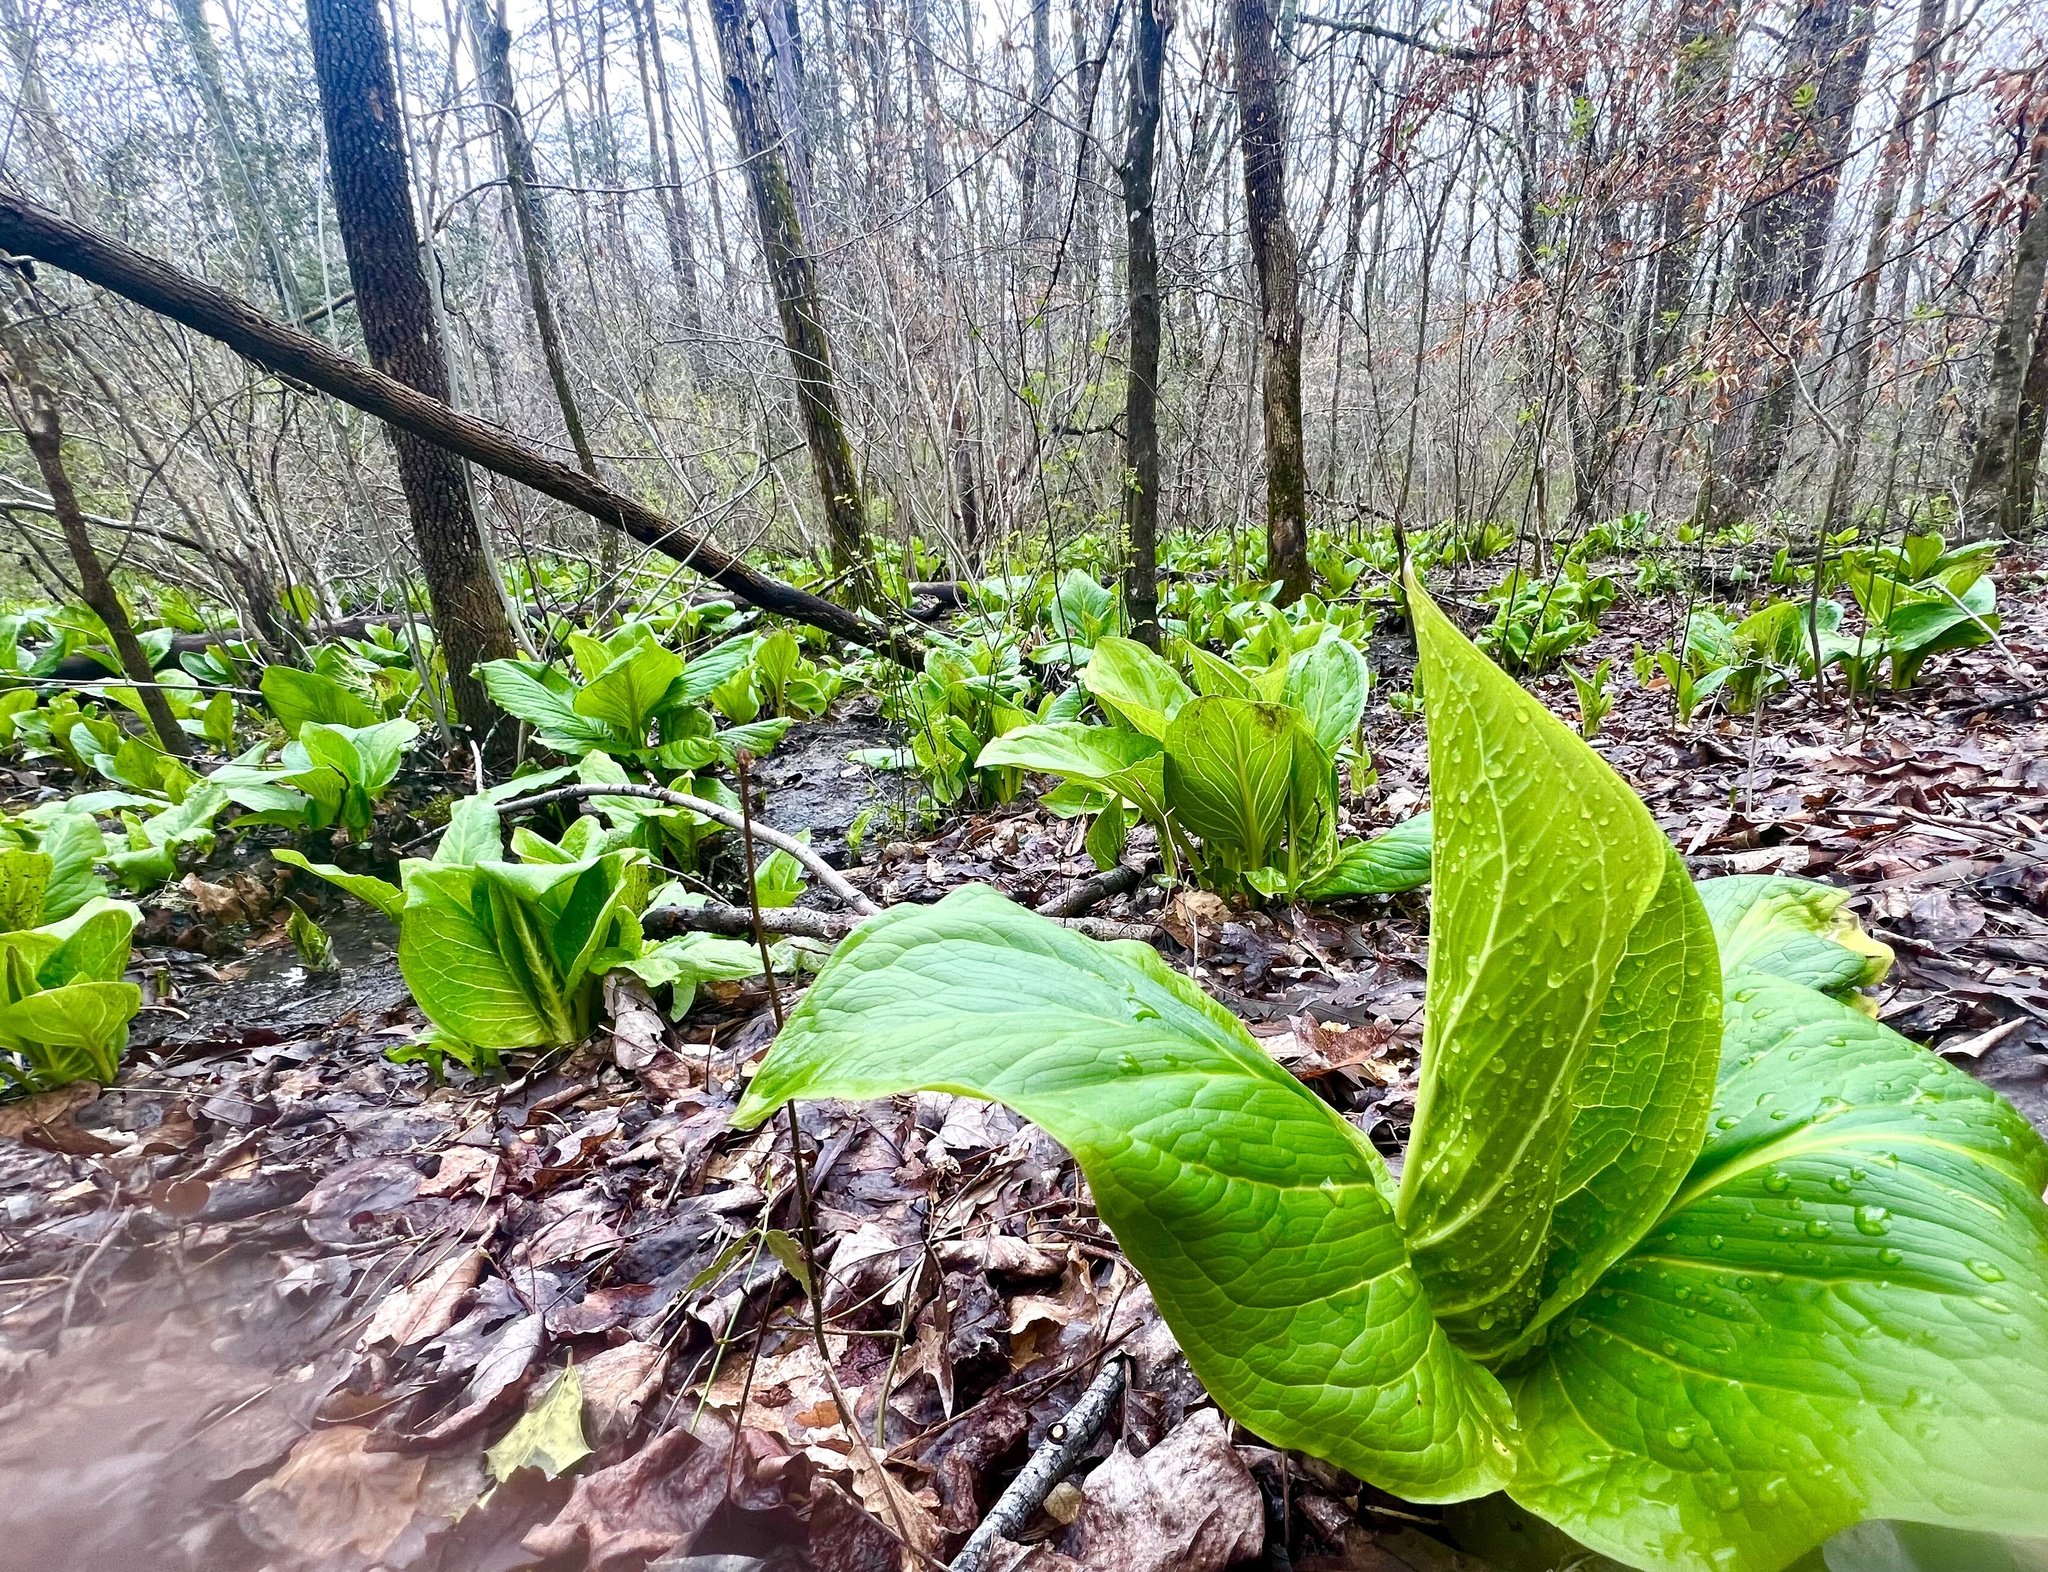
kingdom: Plantae
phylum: Tracheophyta
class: Liliopsida
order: Alismatales
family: Araceae
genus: Symplocarpus
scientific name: Symplocarpus foetidus
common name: Eastern skunk cabbage
